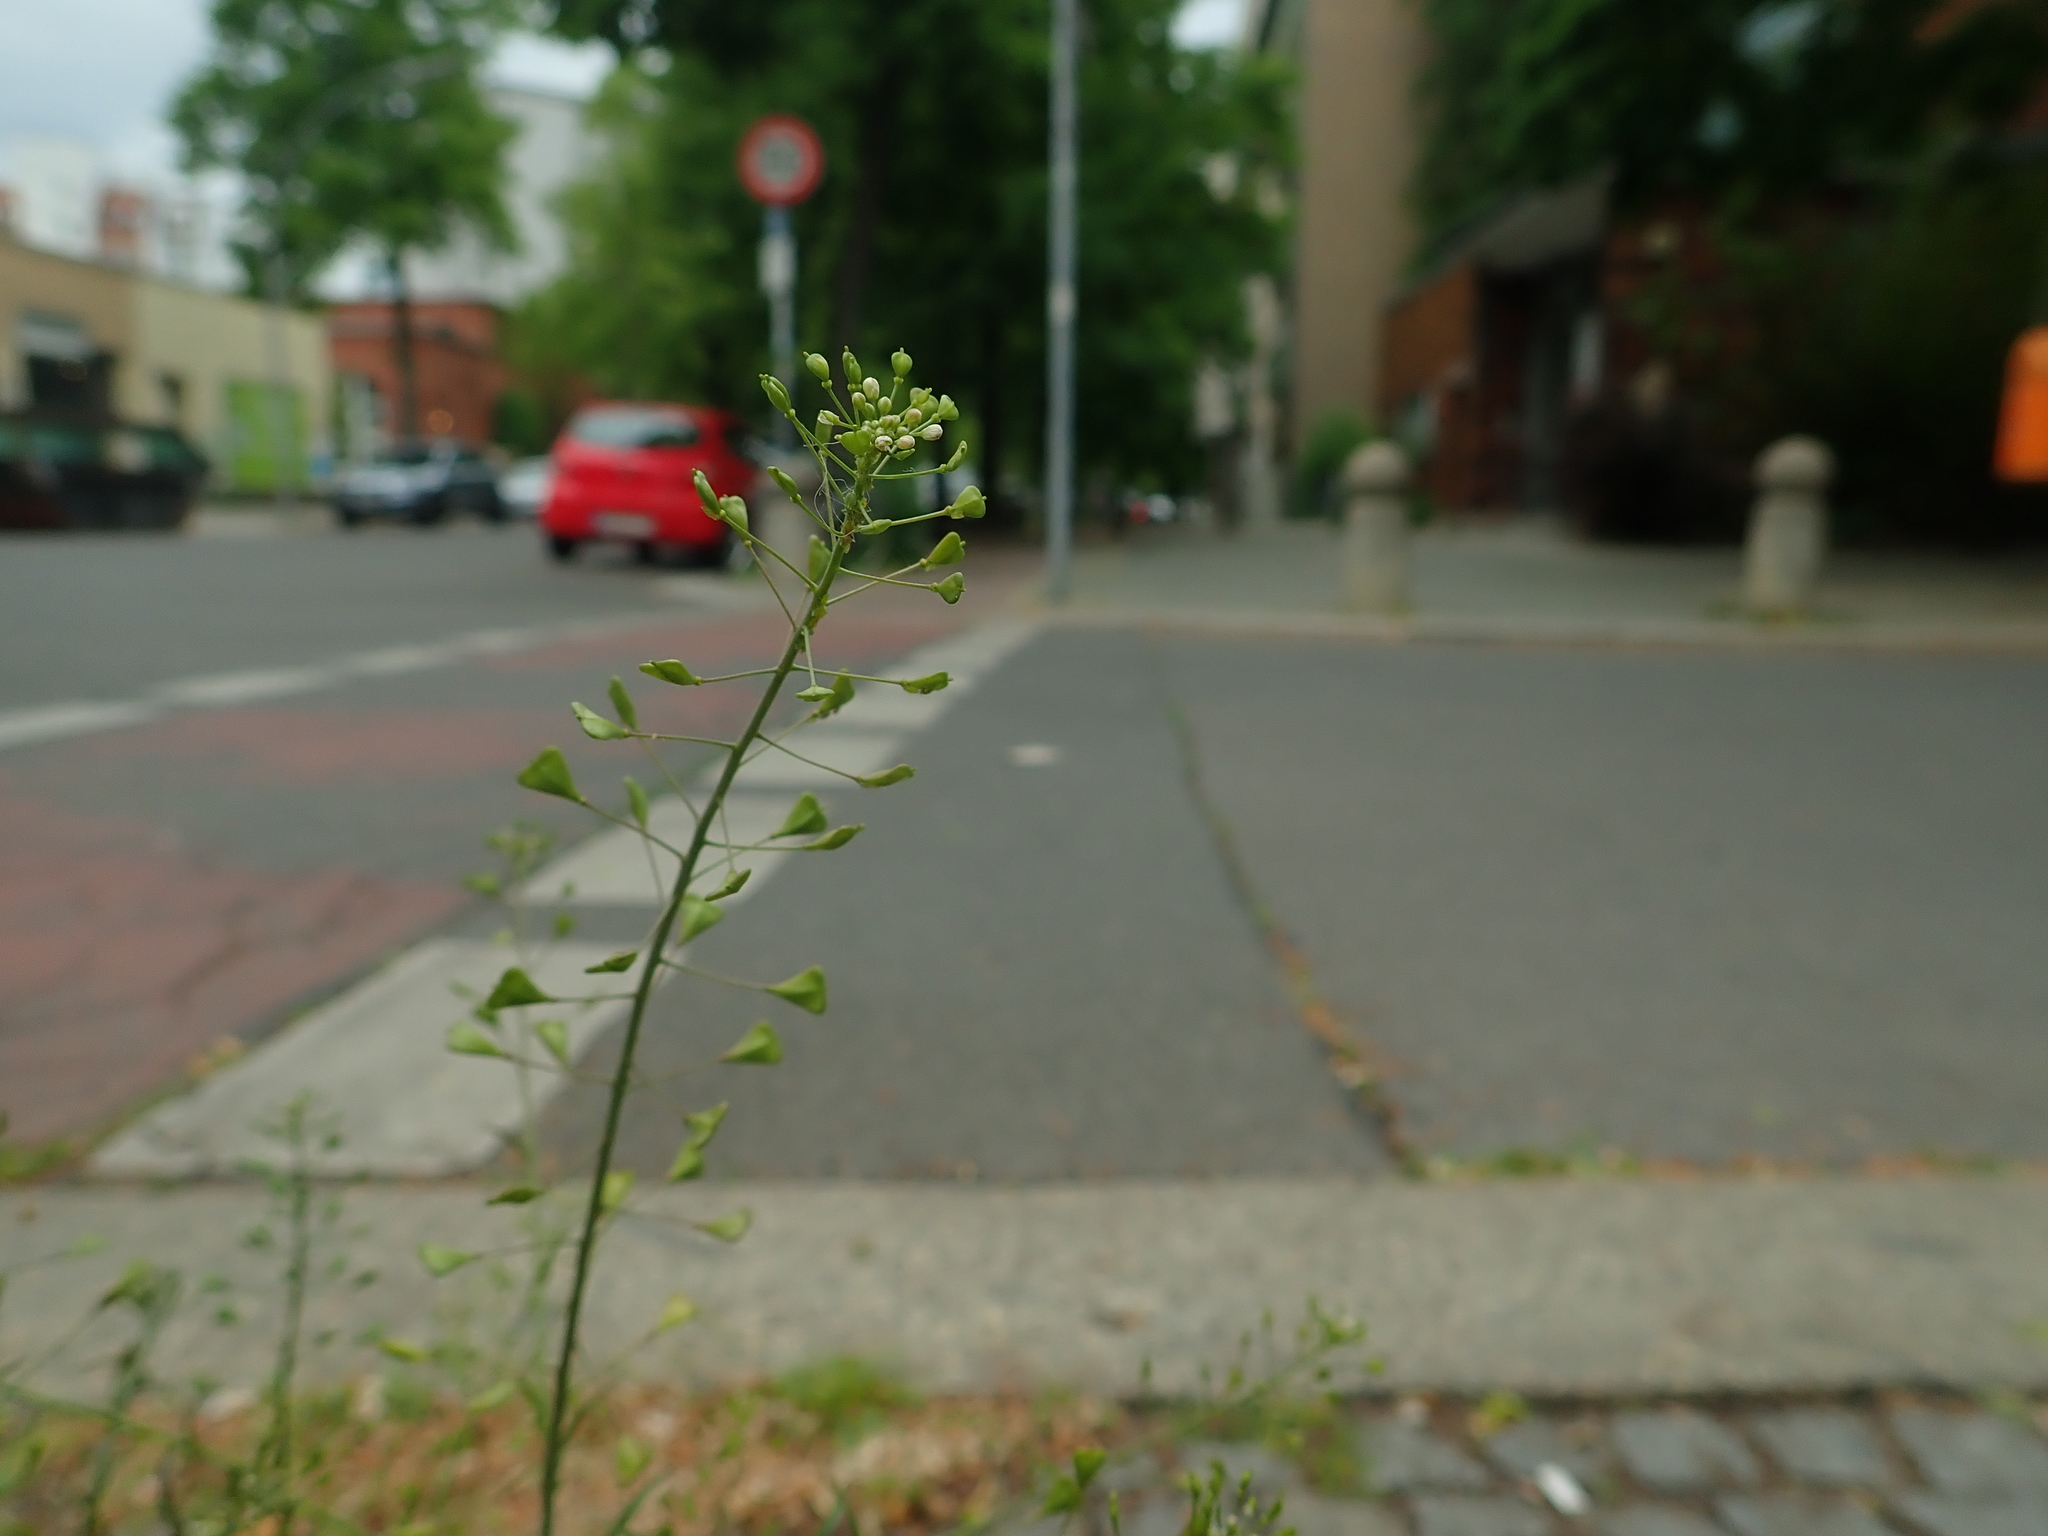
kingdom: Plantae
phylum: Tracheophyta
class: Magnoliopsida
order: Brassicales
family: Brassicaceae
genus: Capsella
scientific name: Capsella bursa-pastoris
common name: Shepherd's purse
